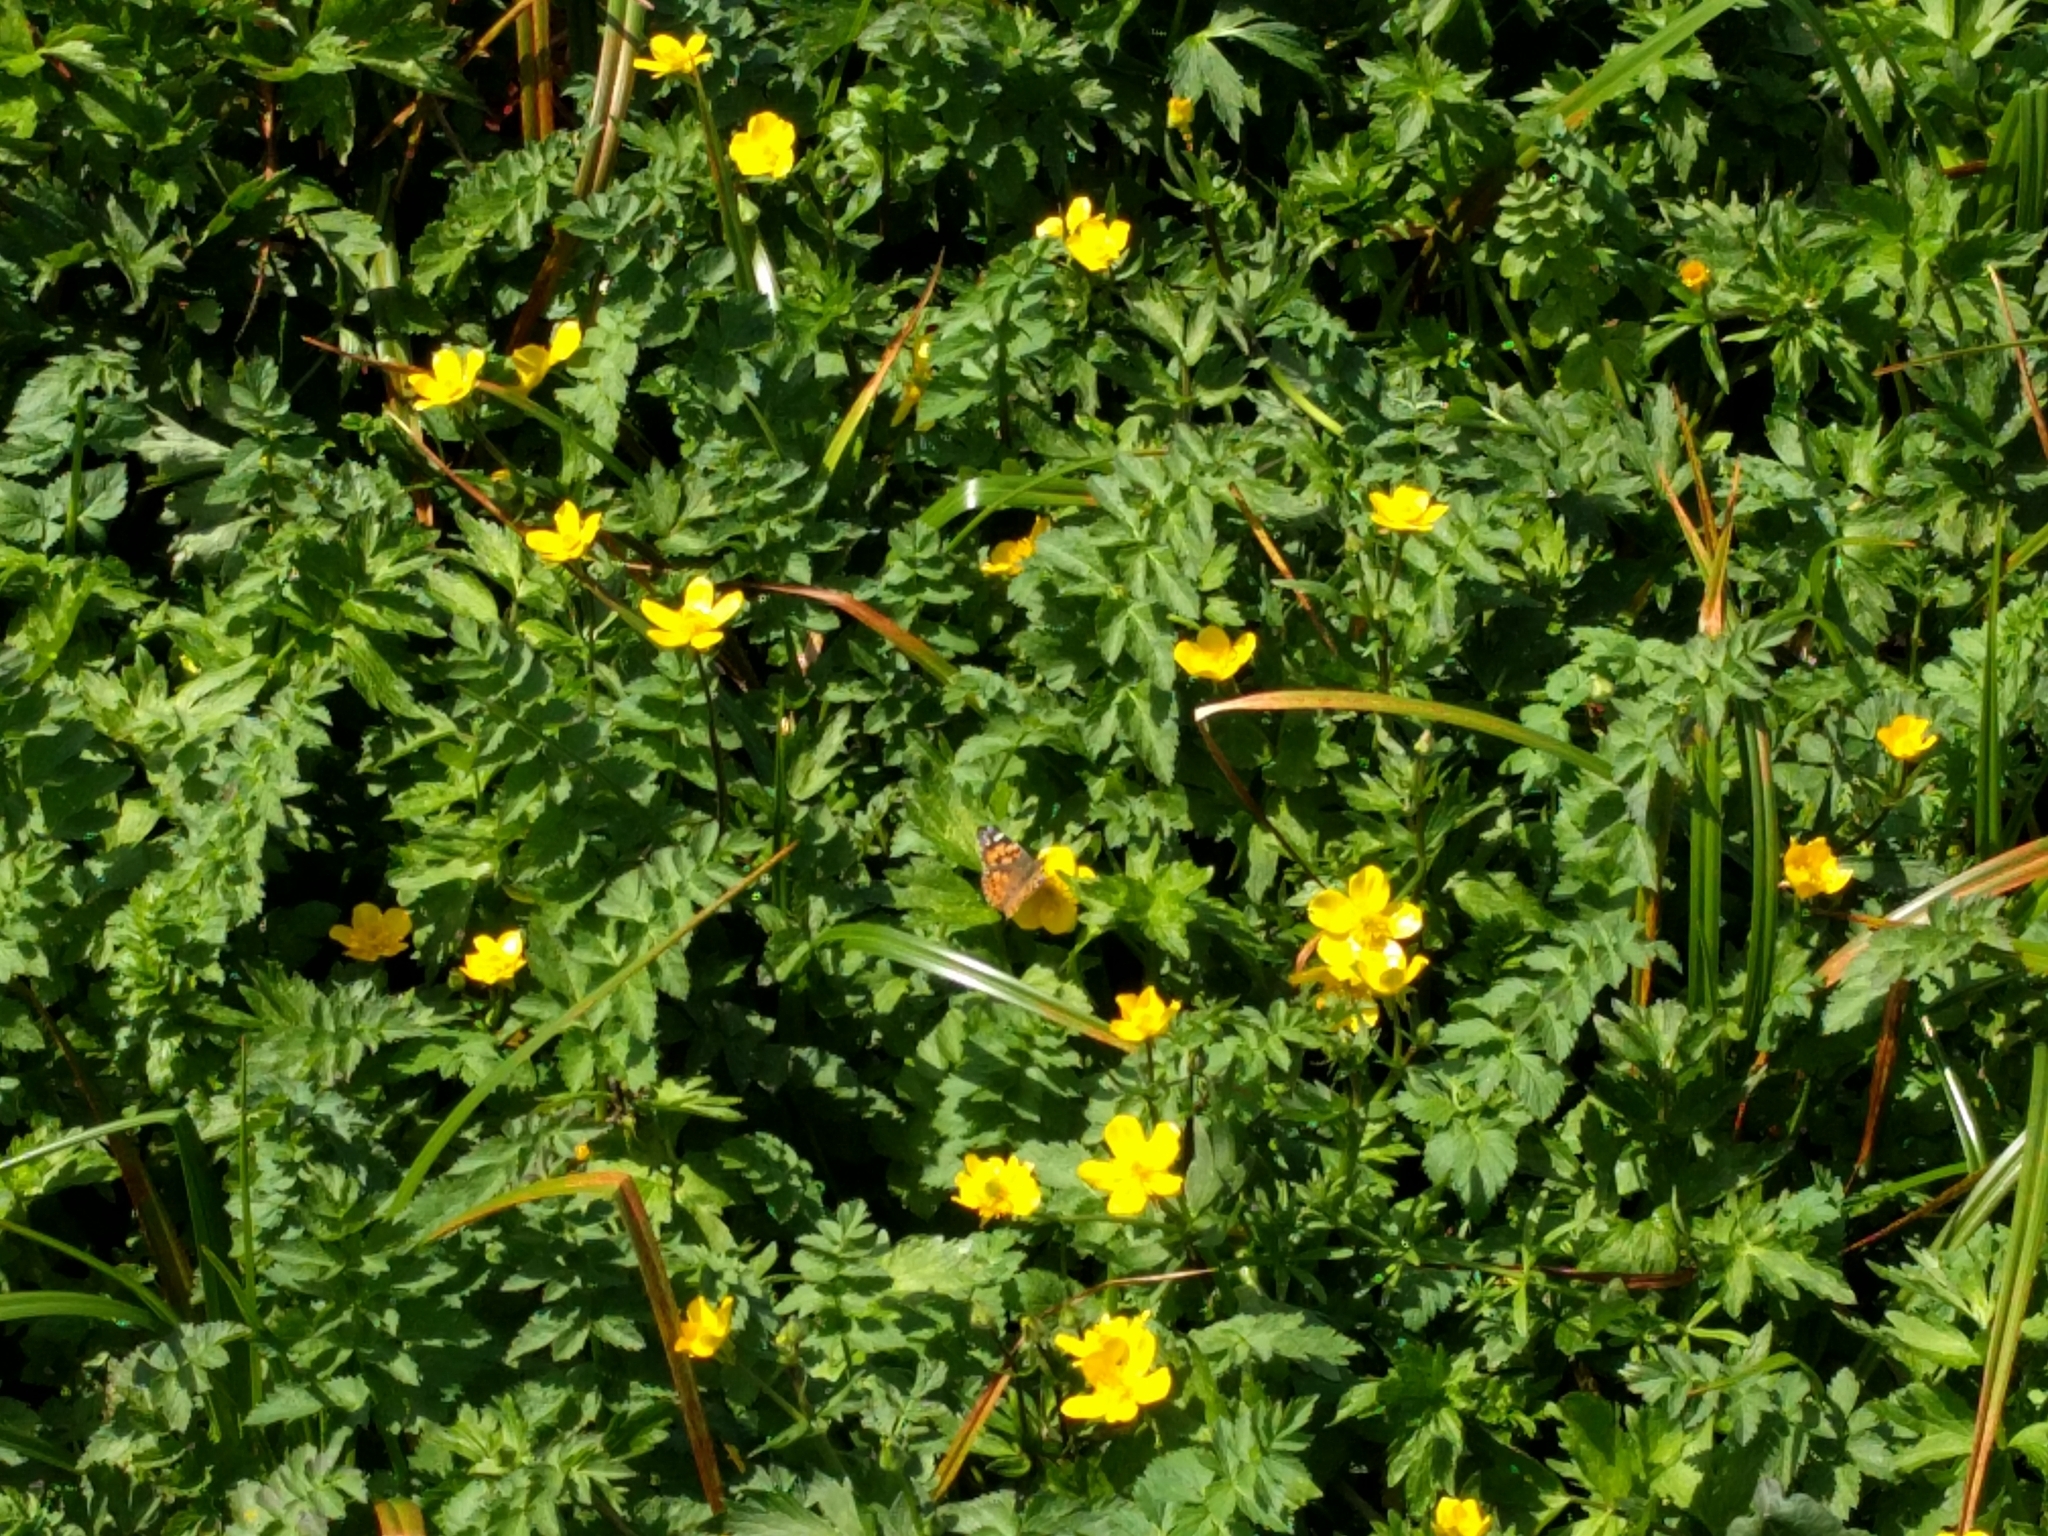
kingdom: Animalia
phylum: Arthropoda
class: Insecta
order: Lepidoptera
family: Nymphalidae
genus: Vanessa
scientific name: Vanessa cardui
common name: Painted lady
